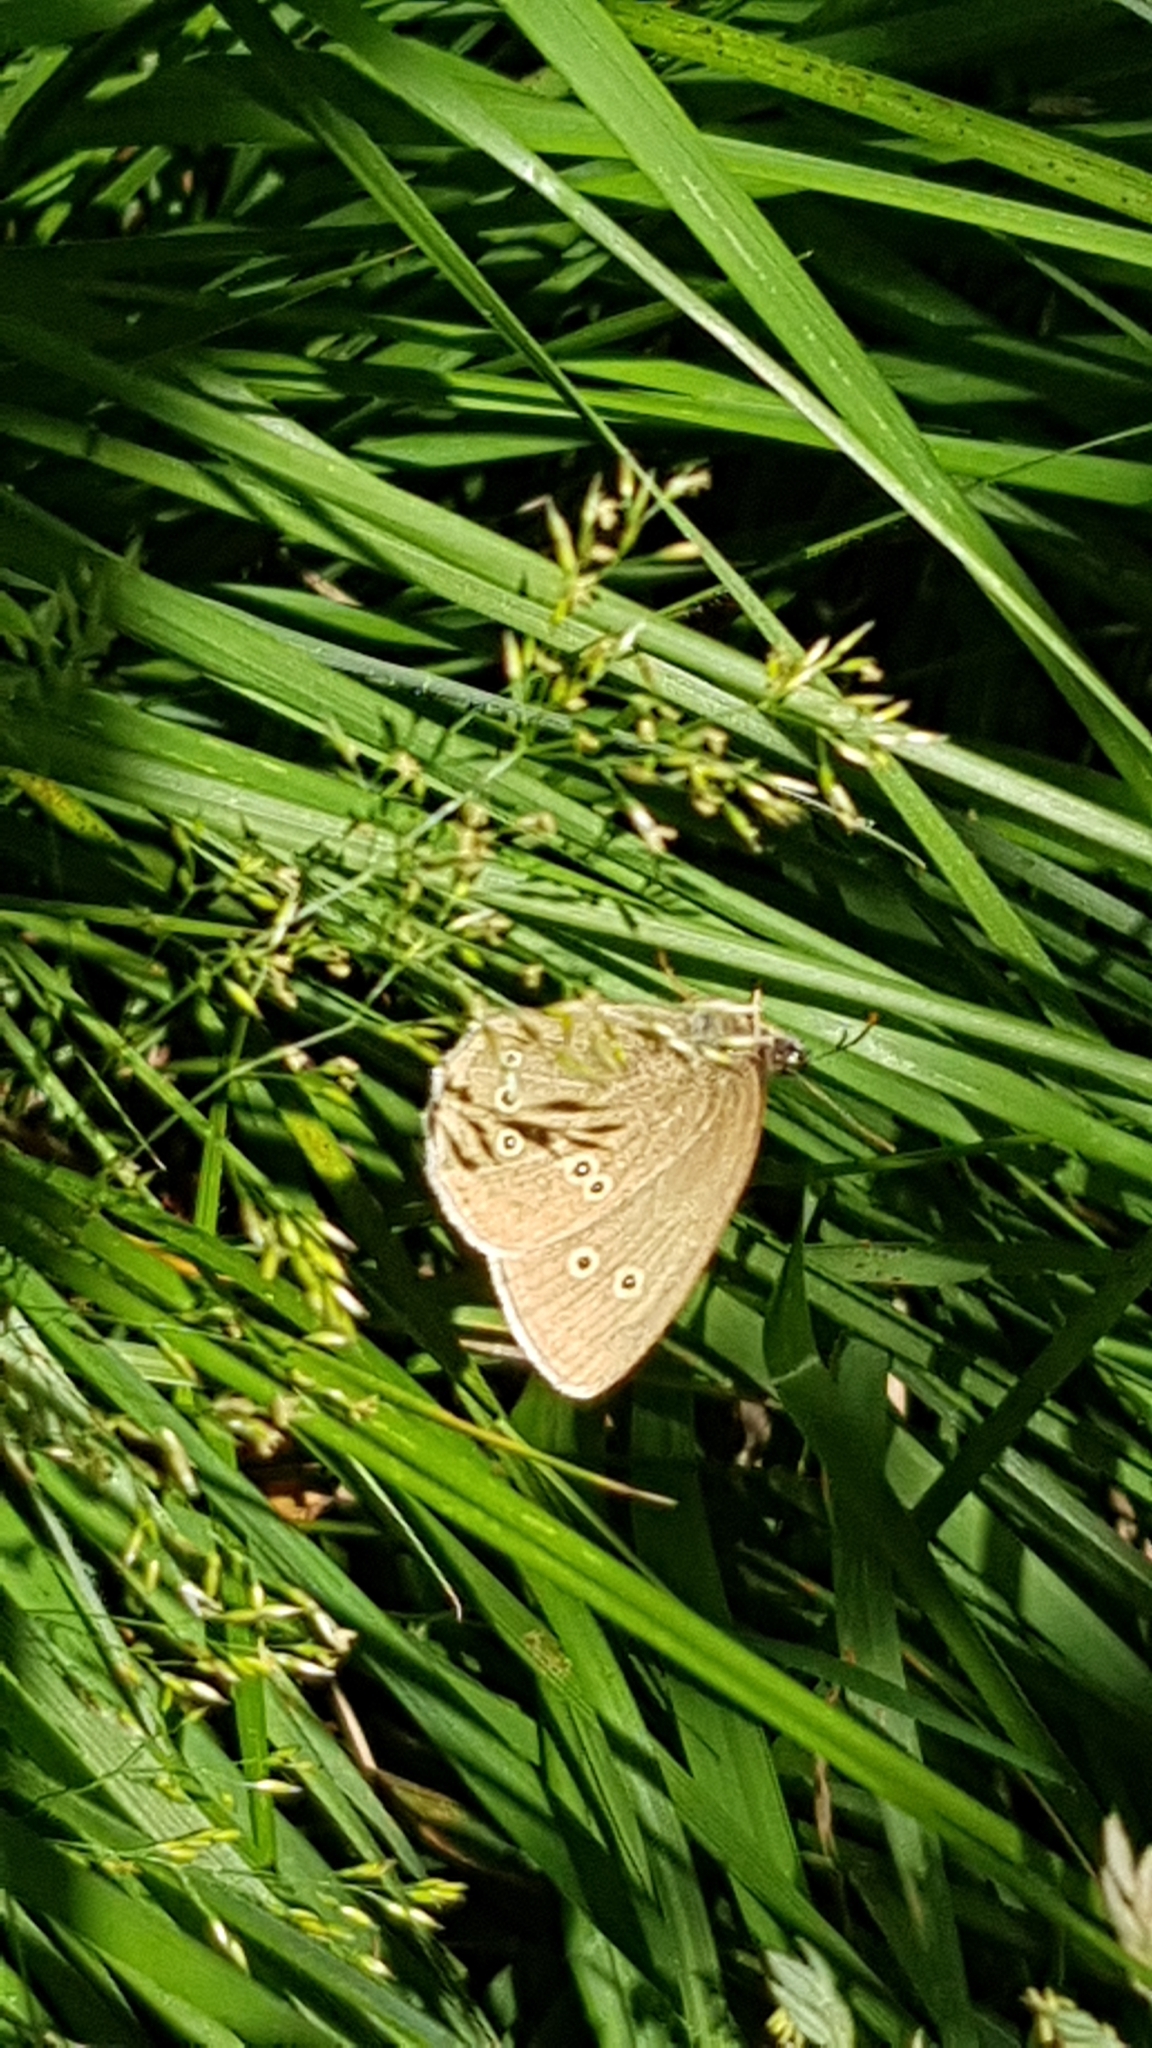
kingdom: Animalia
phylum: Arthropoda
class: Insecta
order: Lepidoptera
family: Nymphalidae
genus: Aphantopus
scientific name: Aphantopus hyperantus
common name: Ringlet
